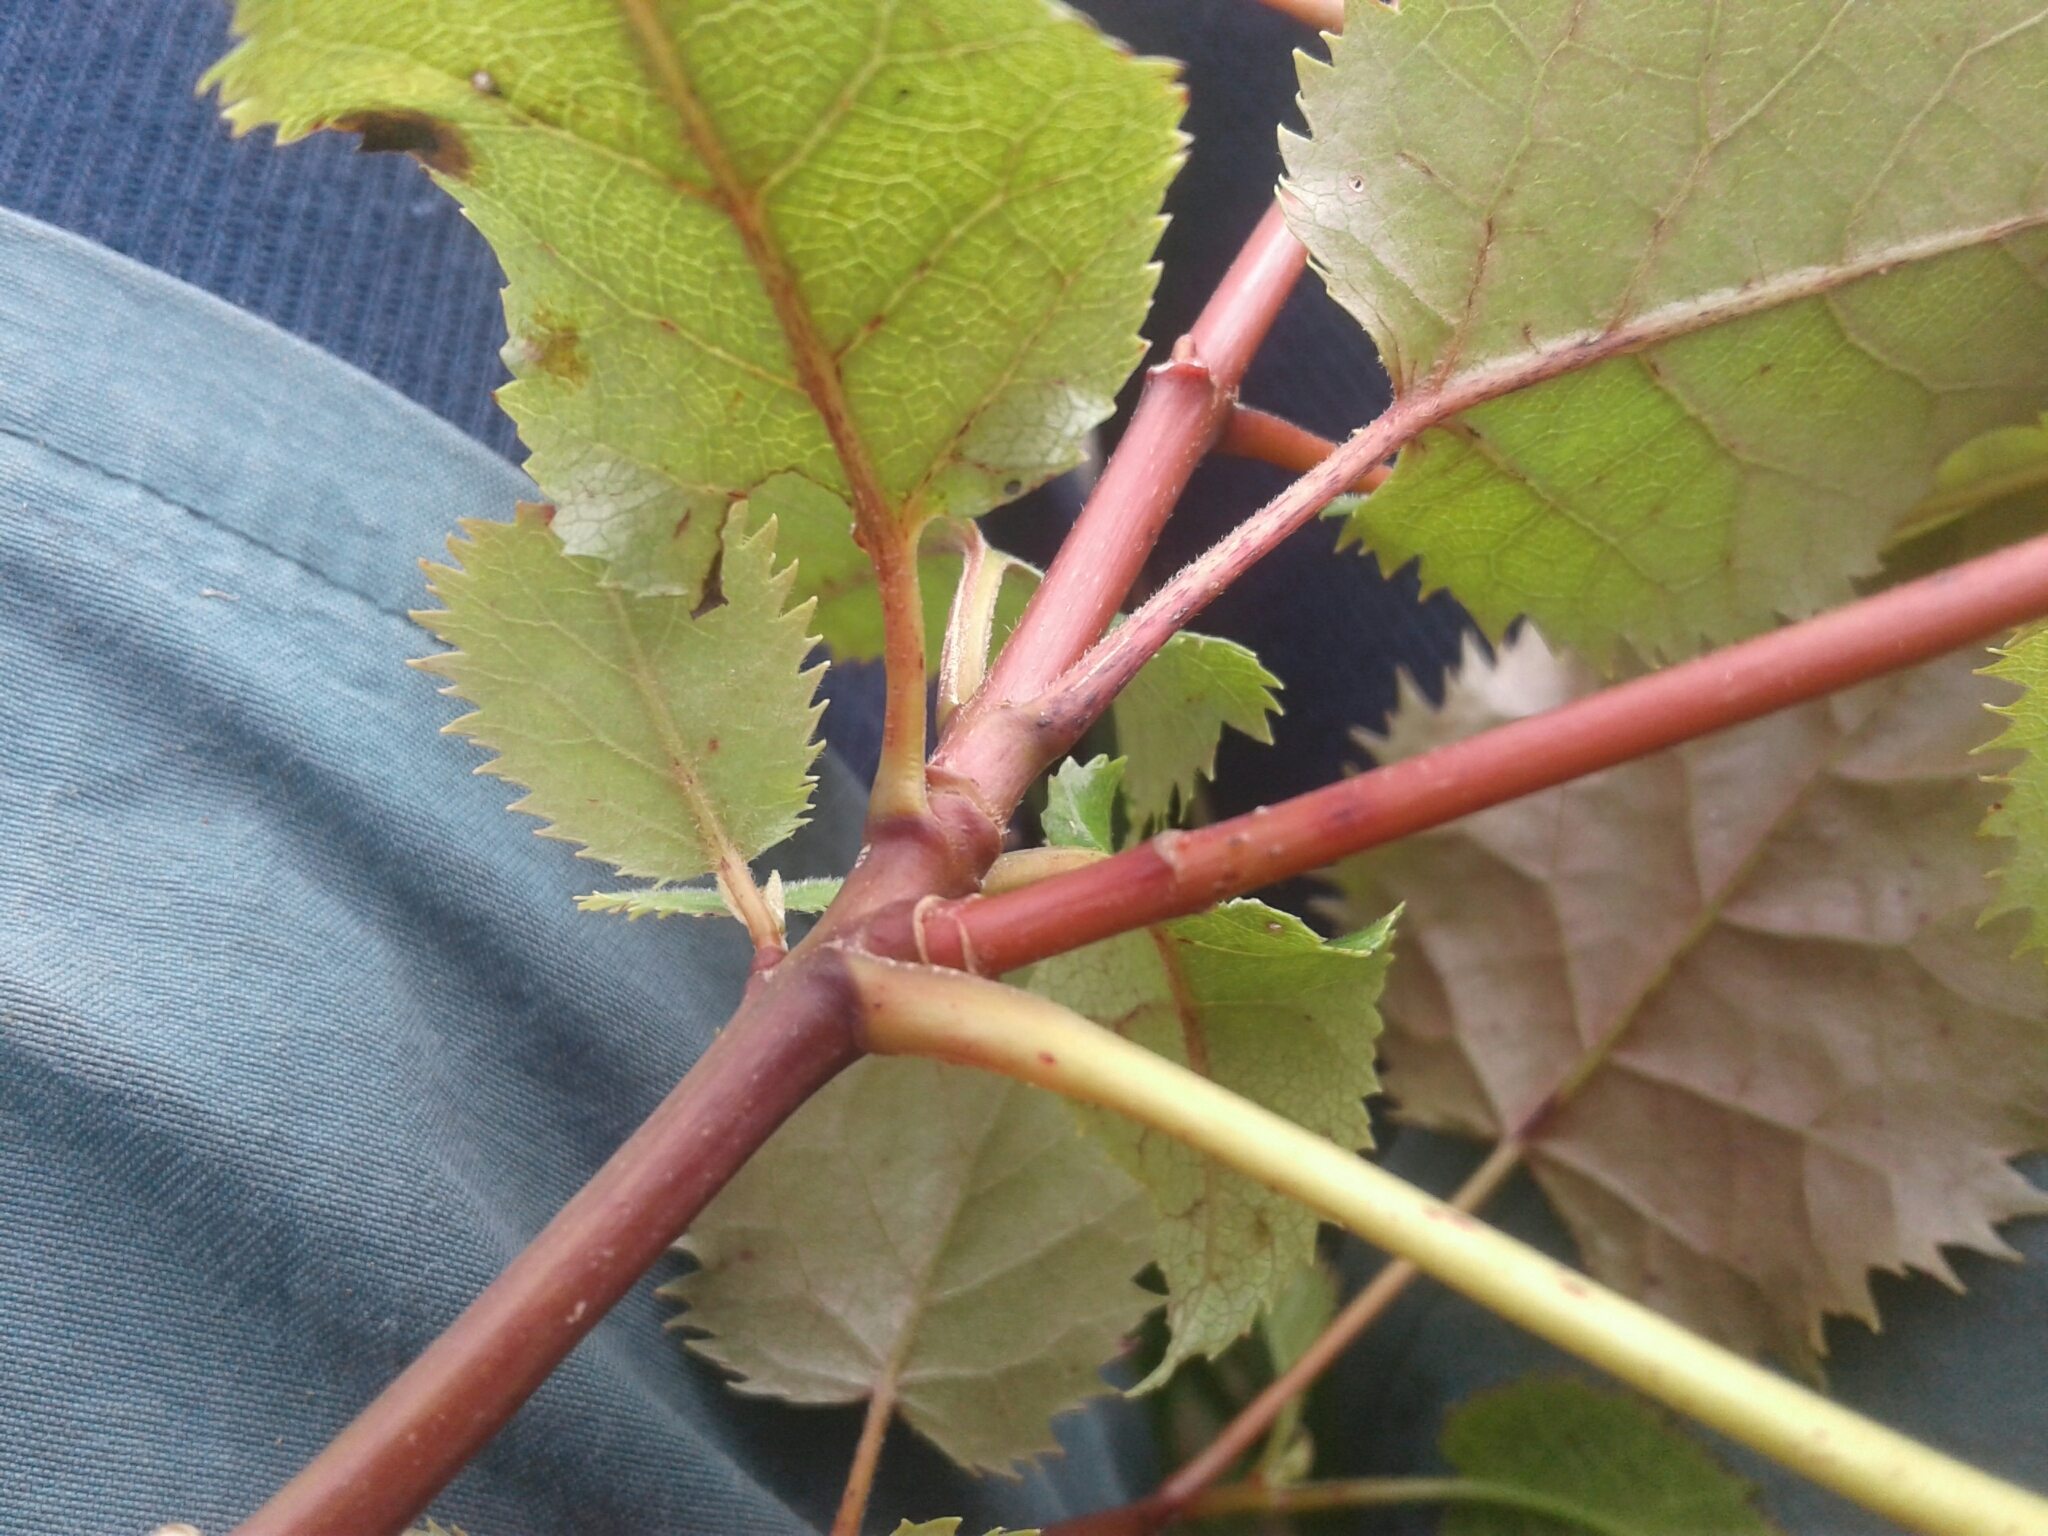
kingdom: Plantae
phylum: Tracheophyta
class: Magnoliopsida
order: Oxalidales
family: Elaeocarpaceae
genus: Aristotelia
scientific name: Aristotelia serrata
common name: New zealand wineberry
